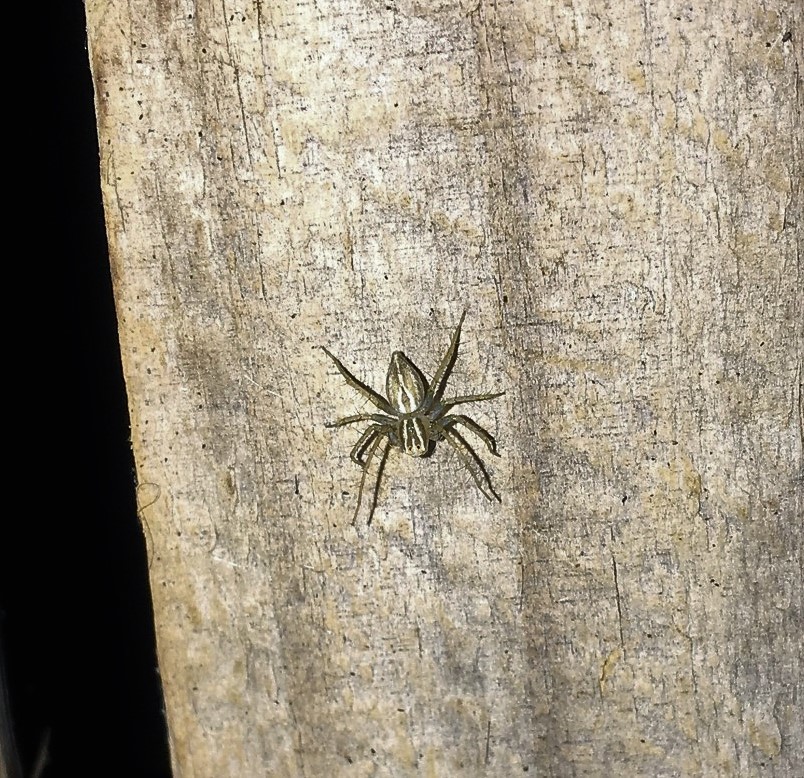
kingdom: Animalia
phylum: Arthropoda
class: Arachnida
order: Araneae
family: Oxyopidae
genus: Oxyopes
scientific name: Oxyopes salticus
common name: Lynx spiders
